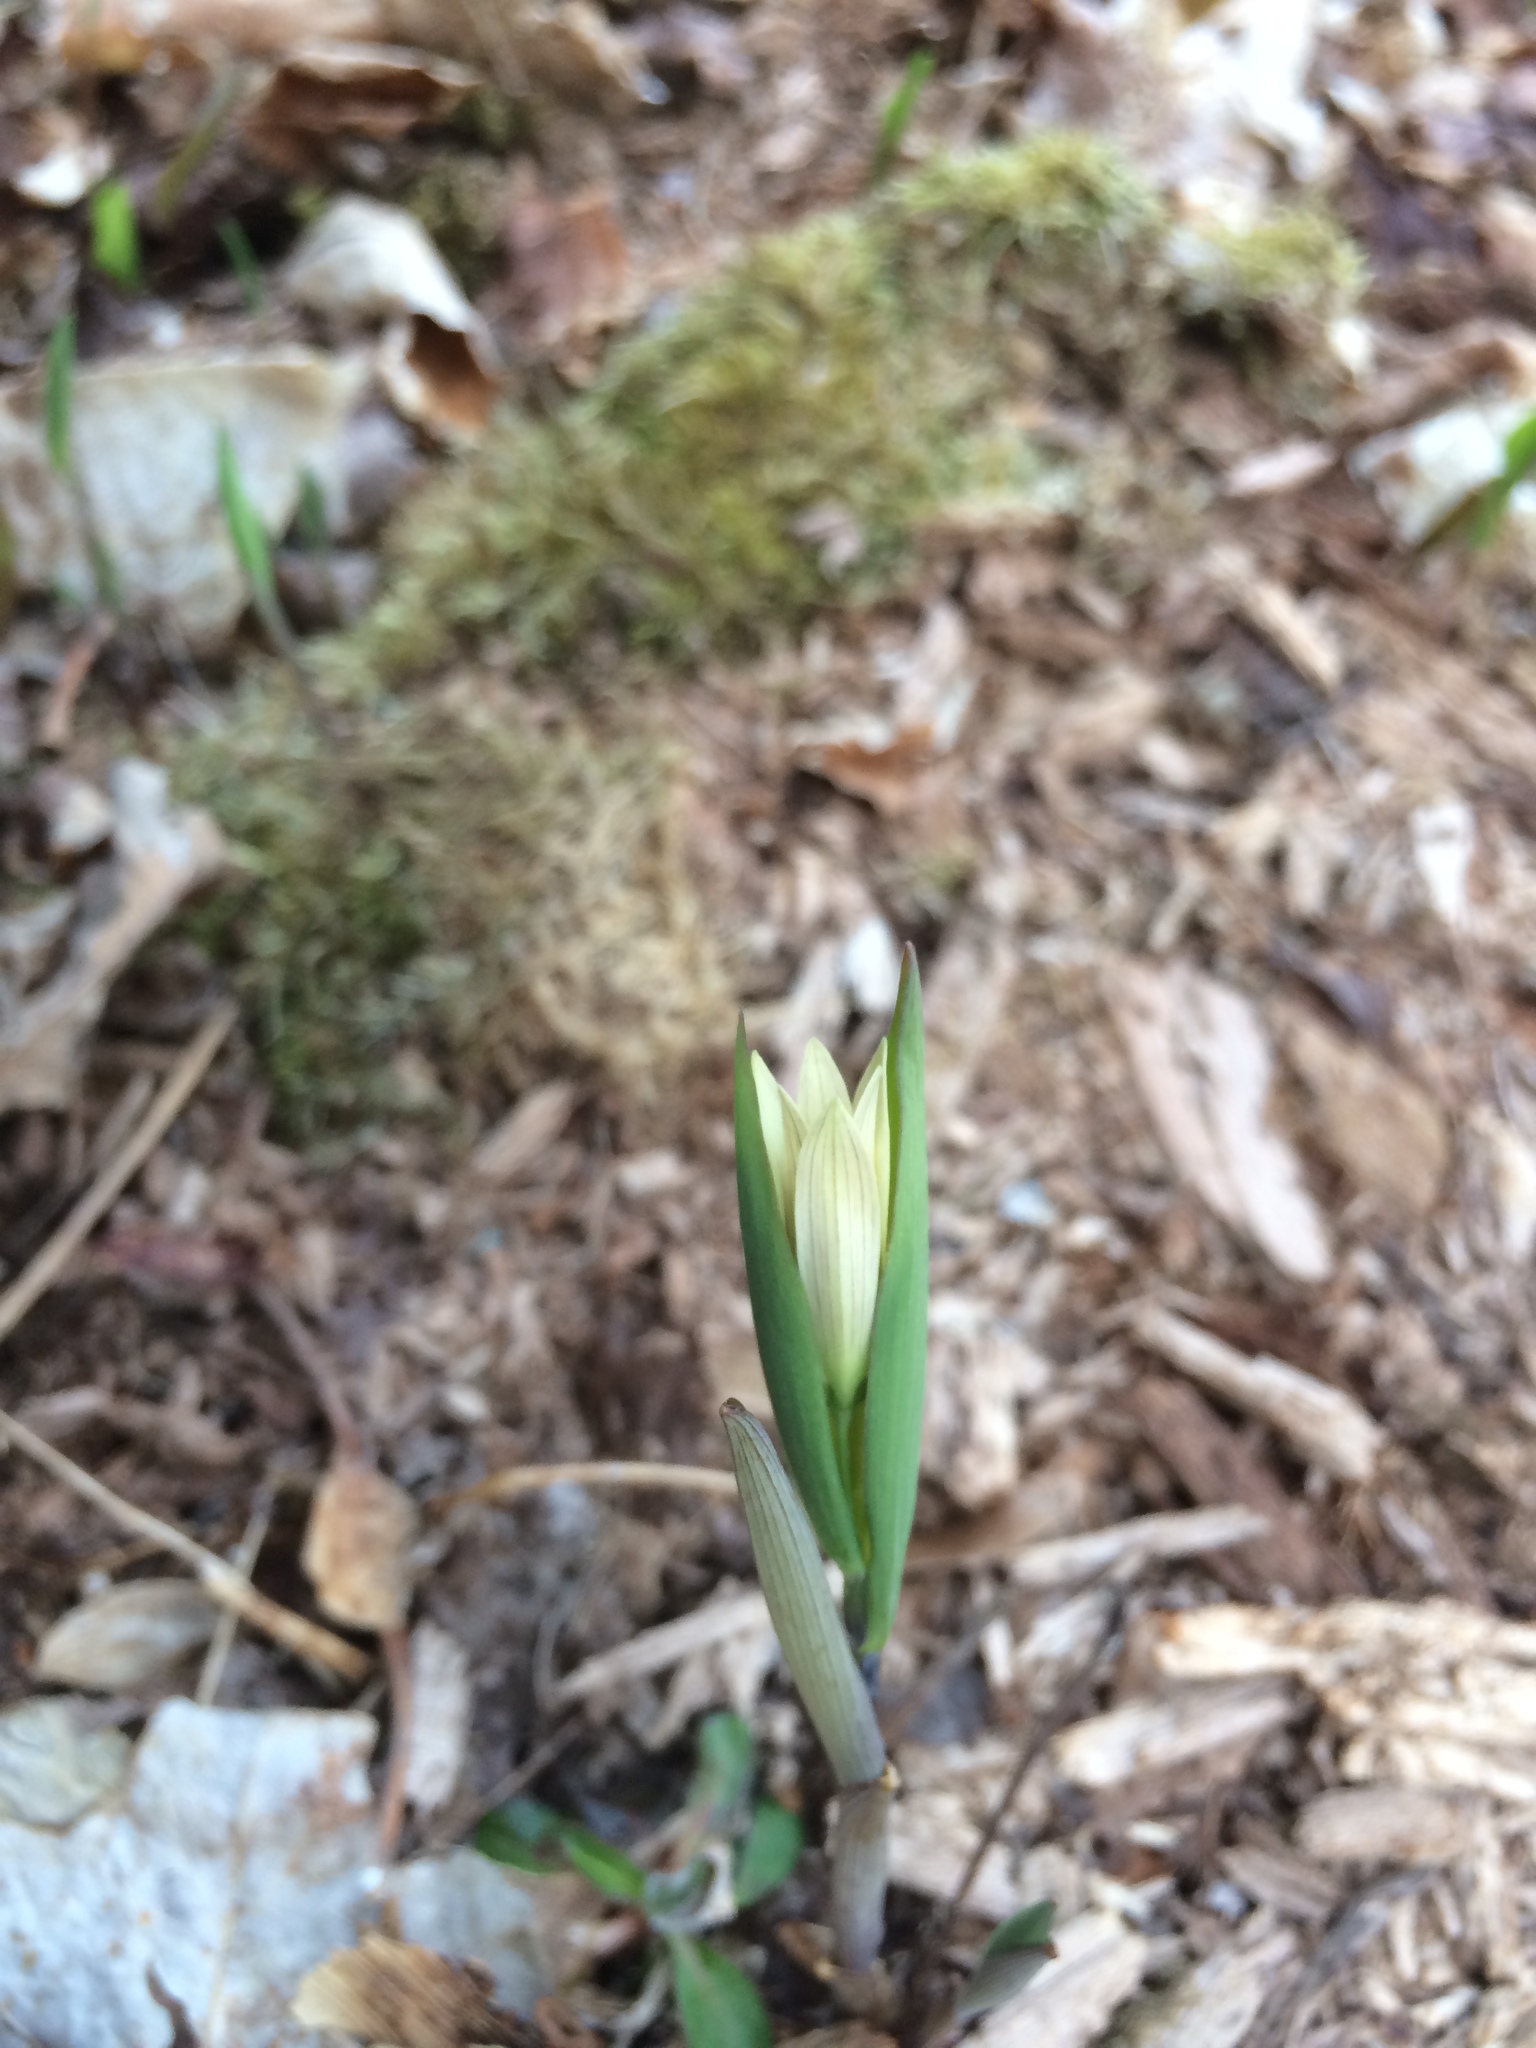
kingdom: Plantae
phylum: Tracheophyta
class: Liliopsida
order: Liliales
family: Colchicaceae
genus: Uvularia
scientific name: Uvularia sessilifolia
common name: Straw-lily
